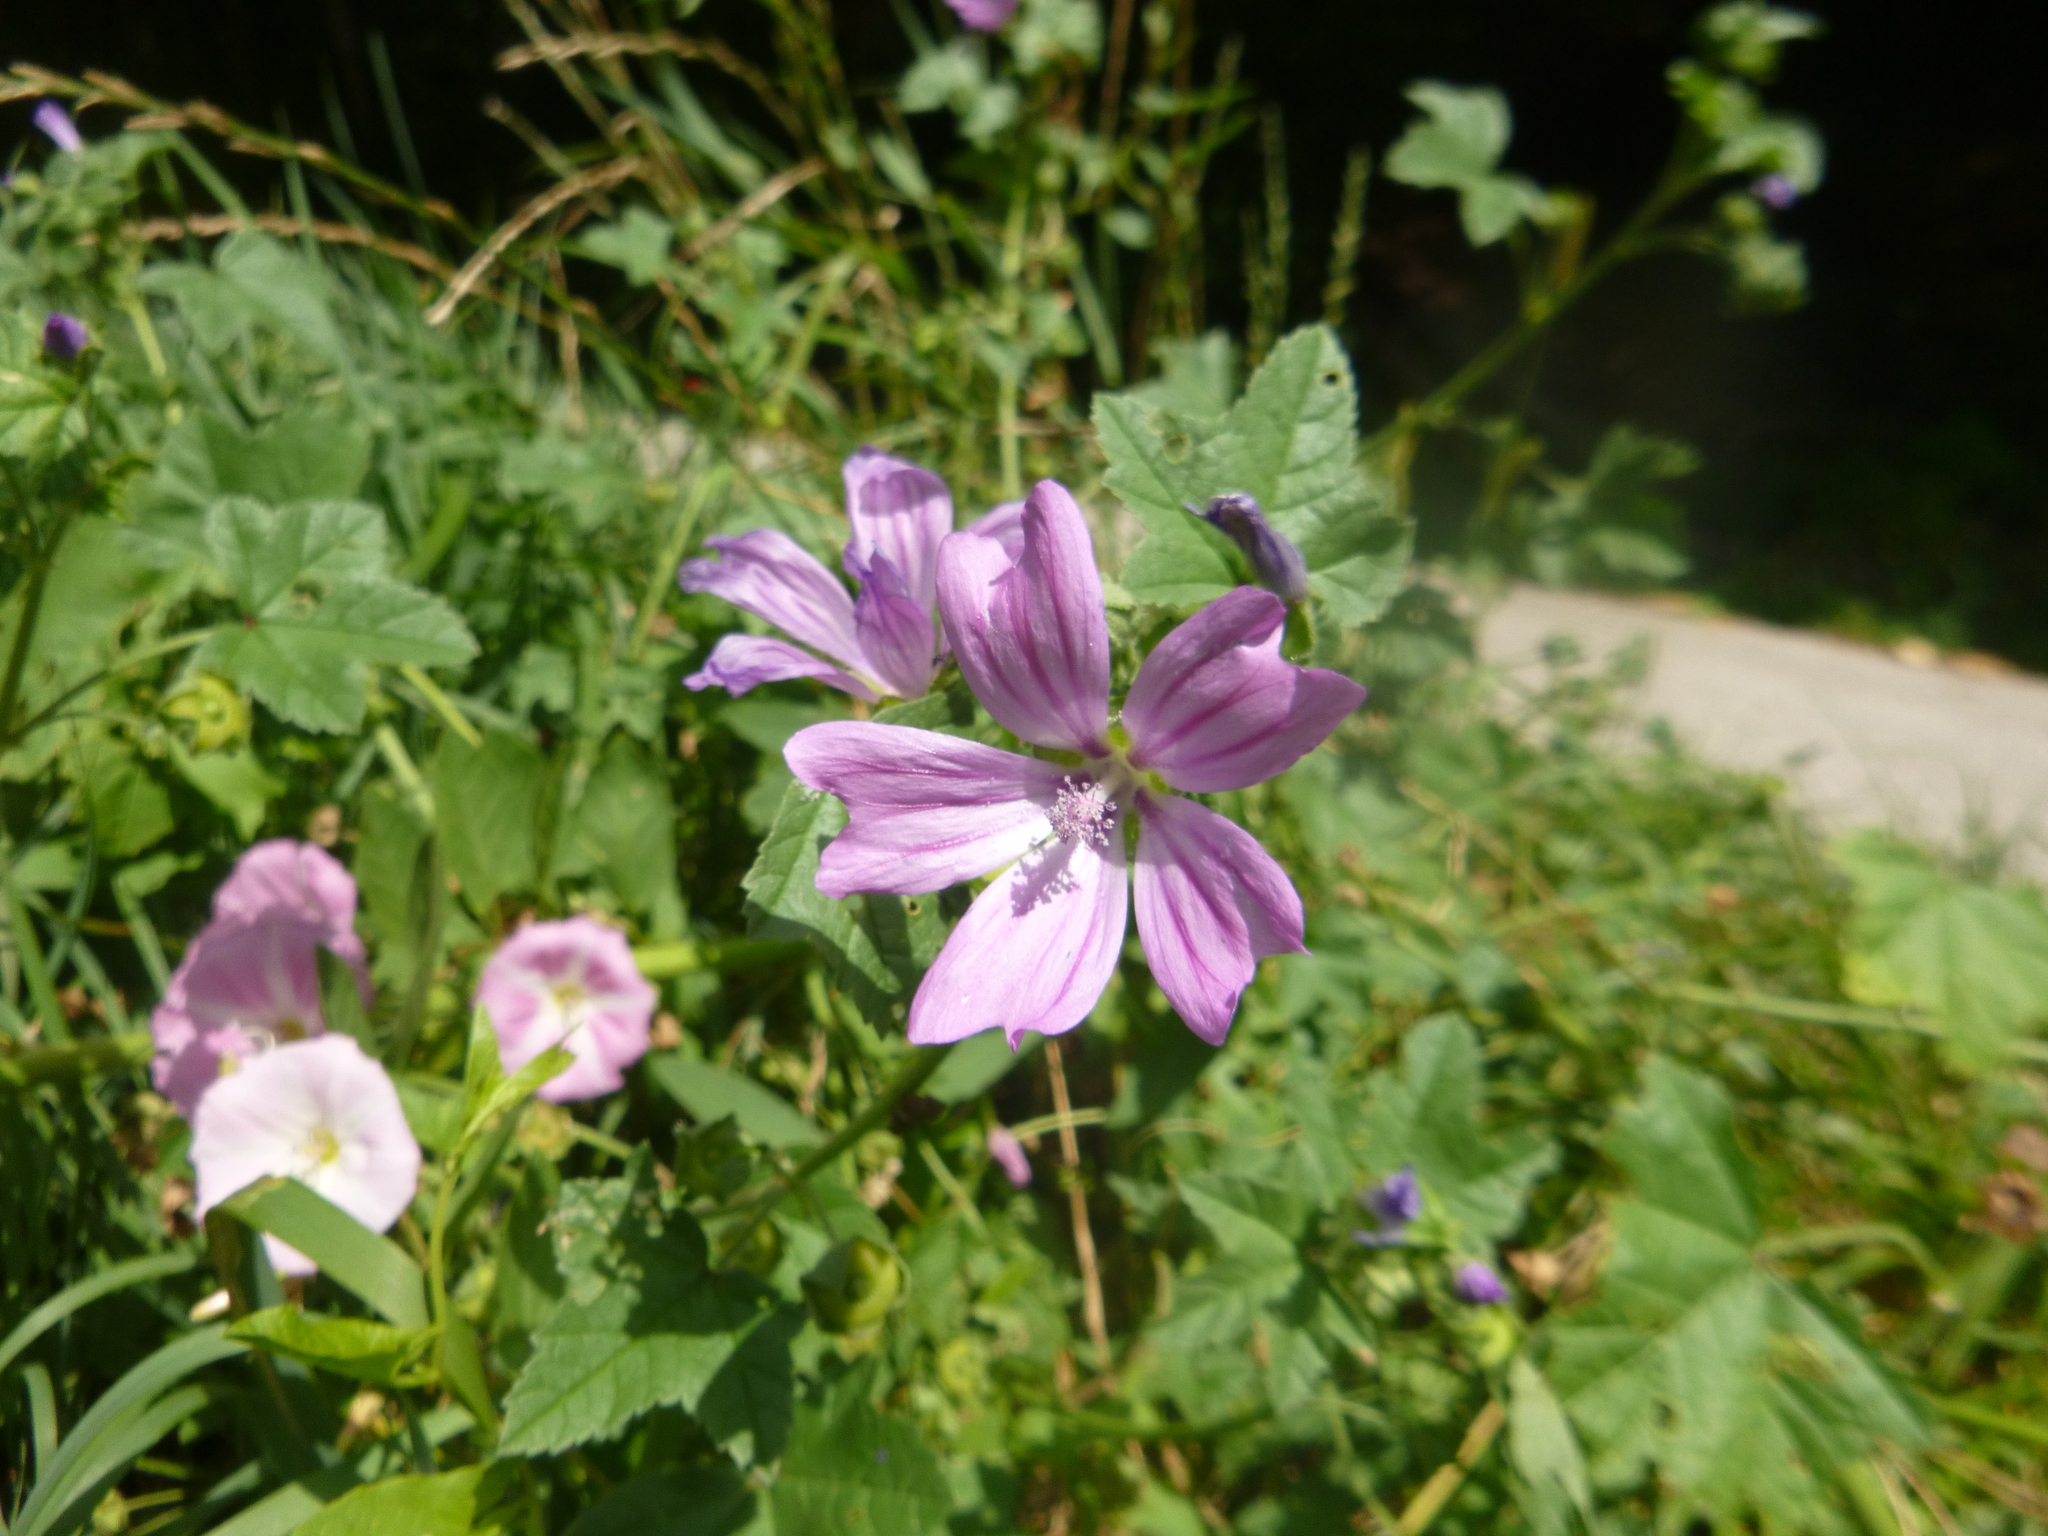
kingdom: Plantae
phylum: Tracheophyta
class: Magnoliopsida
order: Malvales
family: Malvaceae
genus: Malva
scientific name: Malva sylvestris
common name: Common mallow
